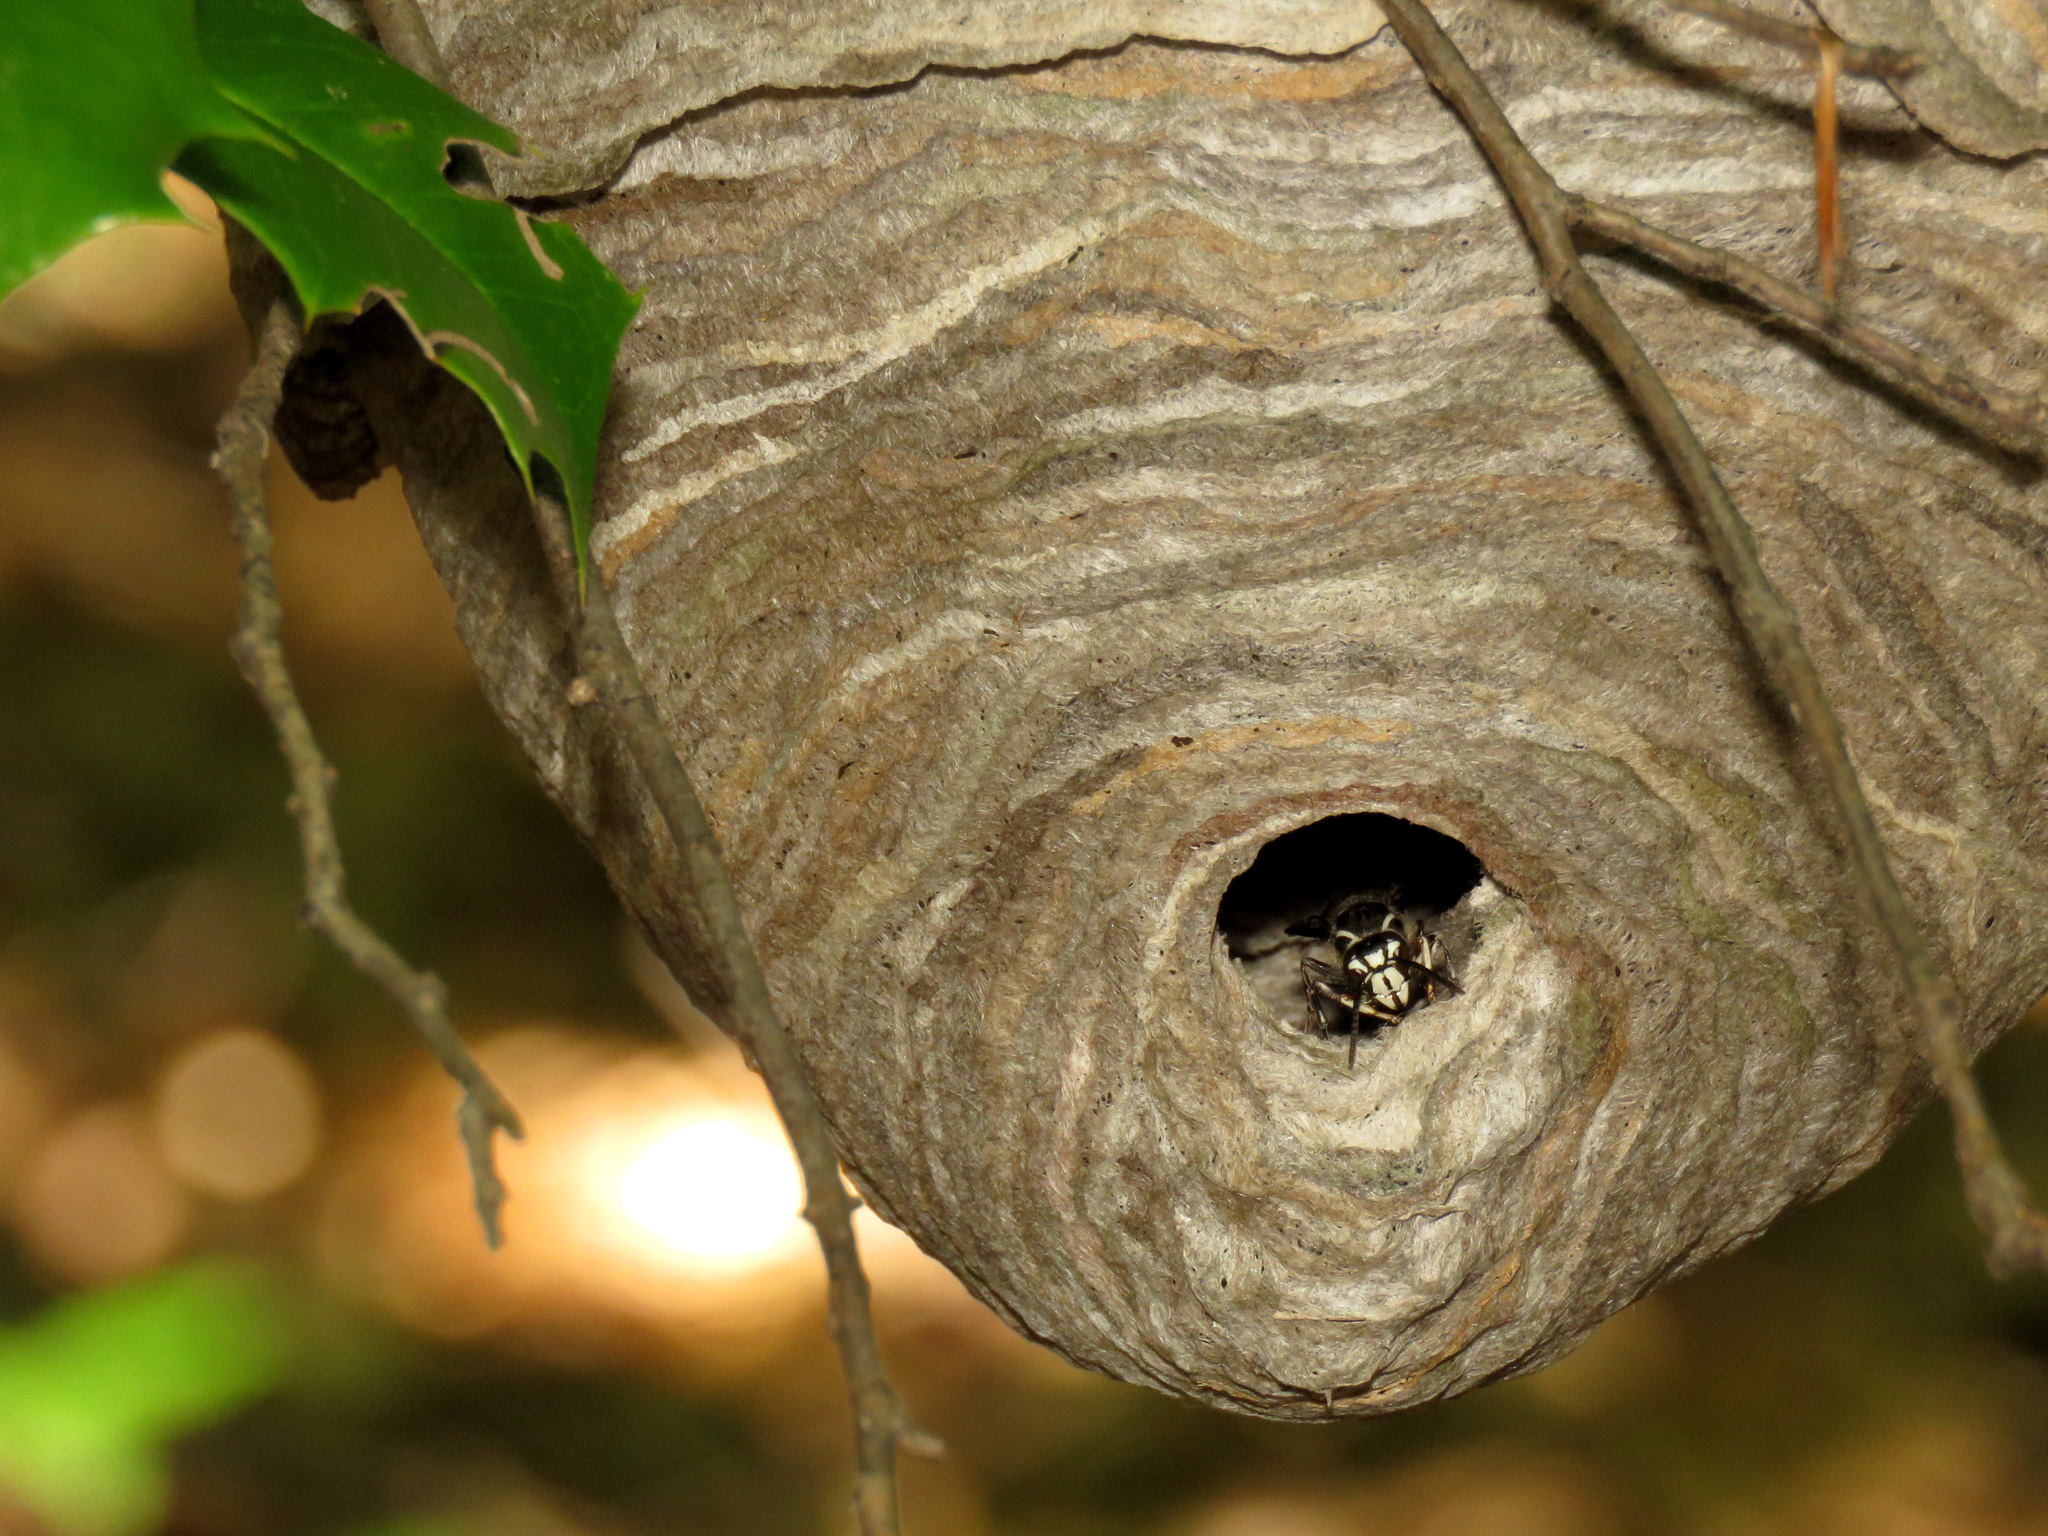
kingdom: Animalia
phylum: Arthropoda
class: Insecta
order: Hymenoptera
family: Vespidae
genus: Dolichovespula
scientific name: Dolichovespula maculata
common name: Bald-faced hornet
